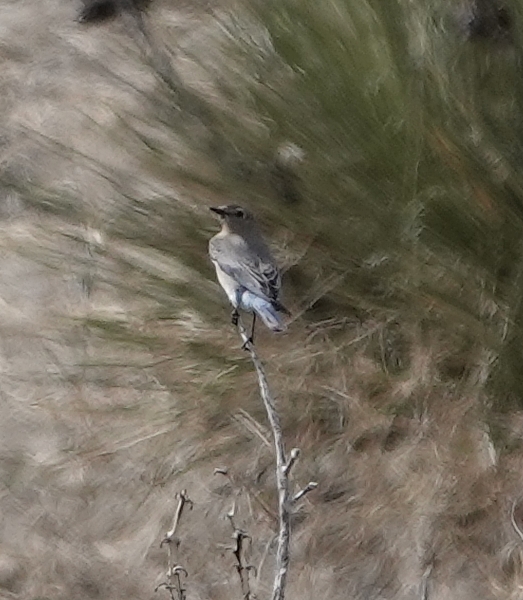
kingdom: Animalia
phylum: Chordata
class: Aves
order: Passeriformes
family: Turdidae
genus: Sialia
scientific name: Sialia currucoides
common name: Mountain bluebird
